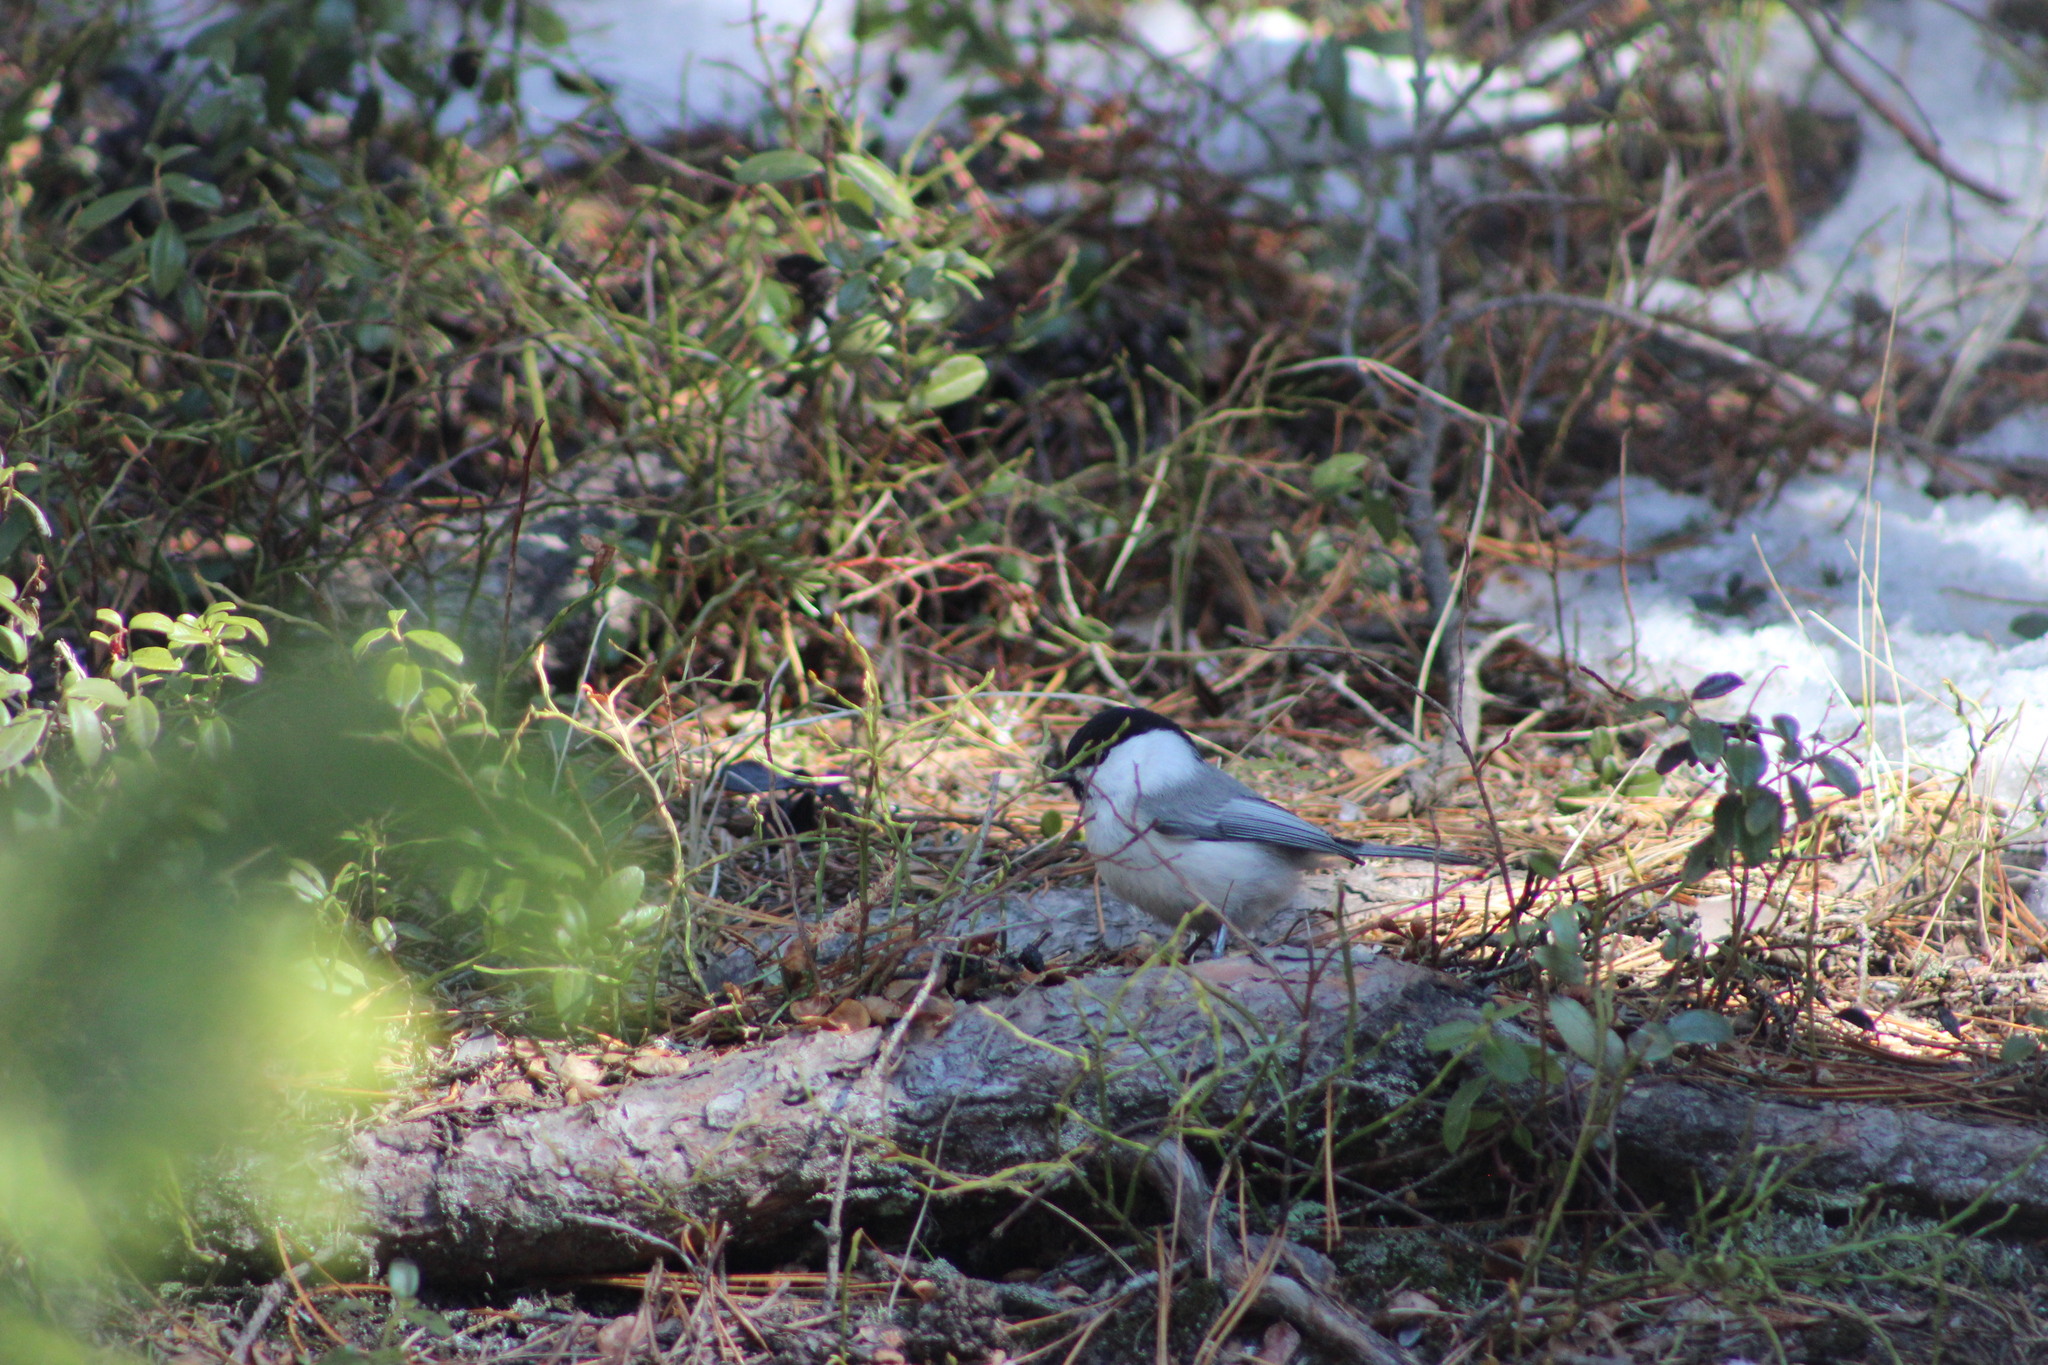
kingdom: Animalia
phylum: Chordata
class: Aves
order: Passeriformes
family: Paridae
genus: Poecile
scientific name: Poecile montanus
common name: Willow tit
